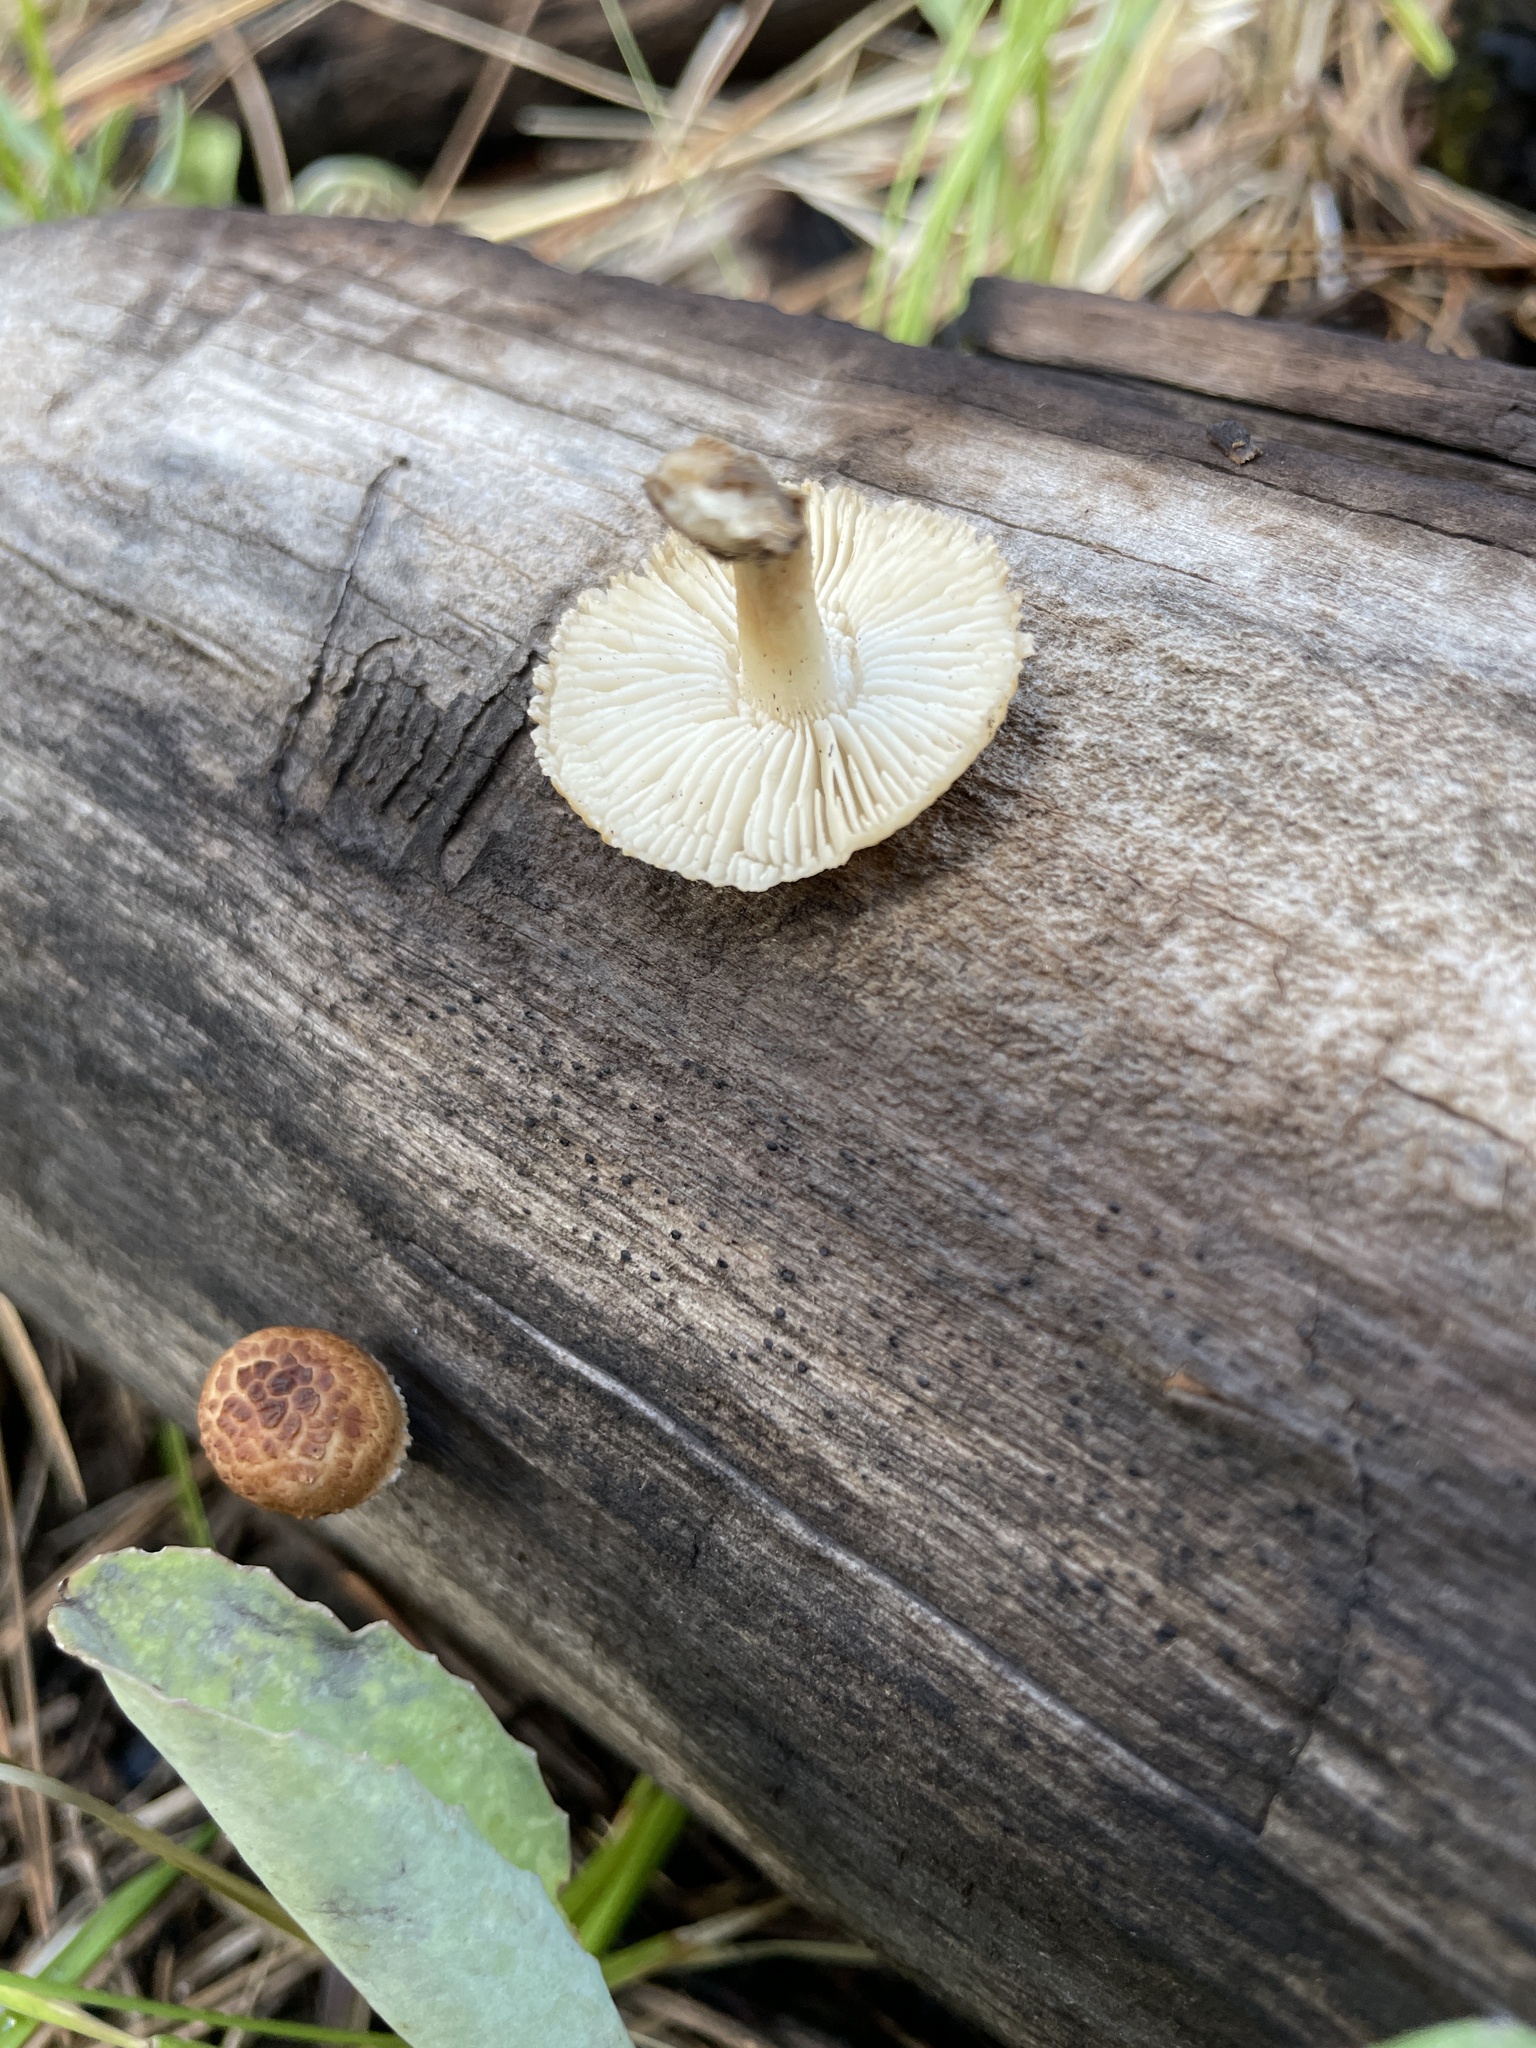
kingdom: Fungi
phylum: Basidiomycota
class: Agaricomycetes
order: Gloeophyllales
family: Gloeophyllaceae
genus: Heliocybe
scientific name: Heliocybe sulcata
